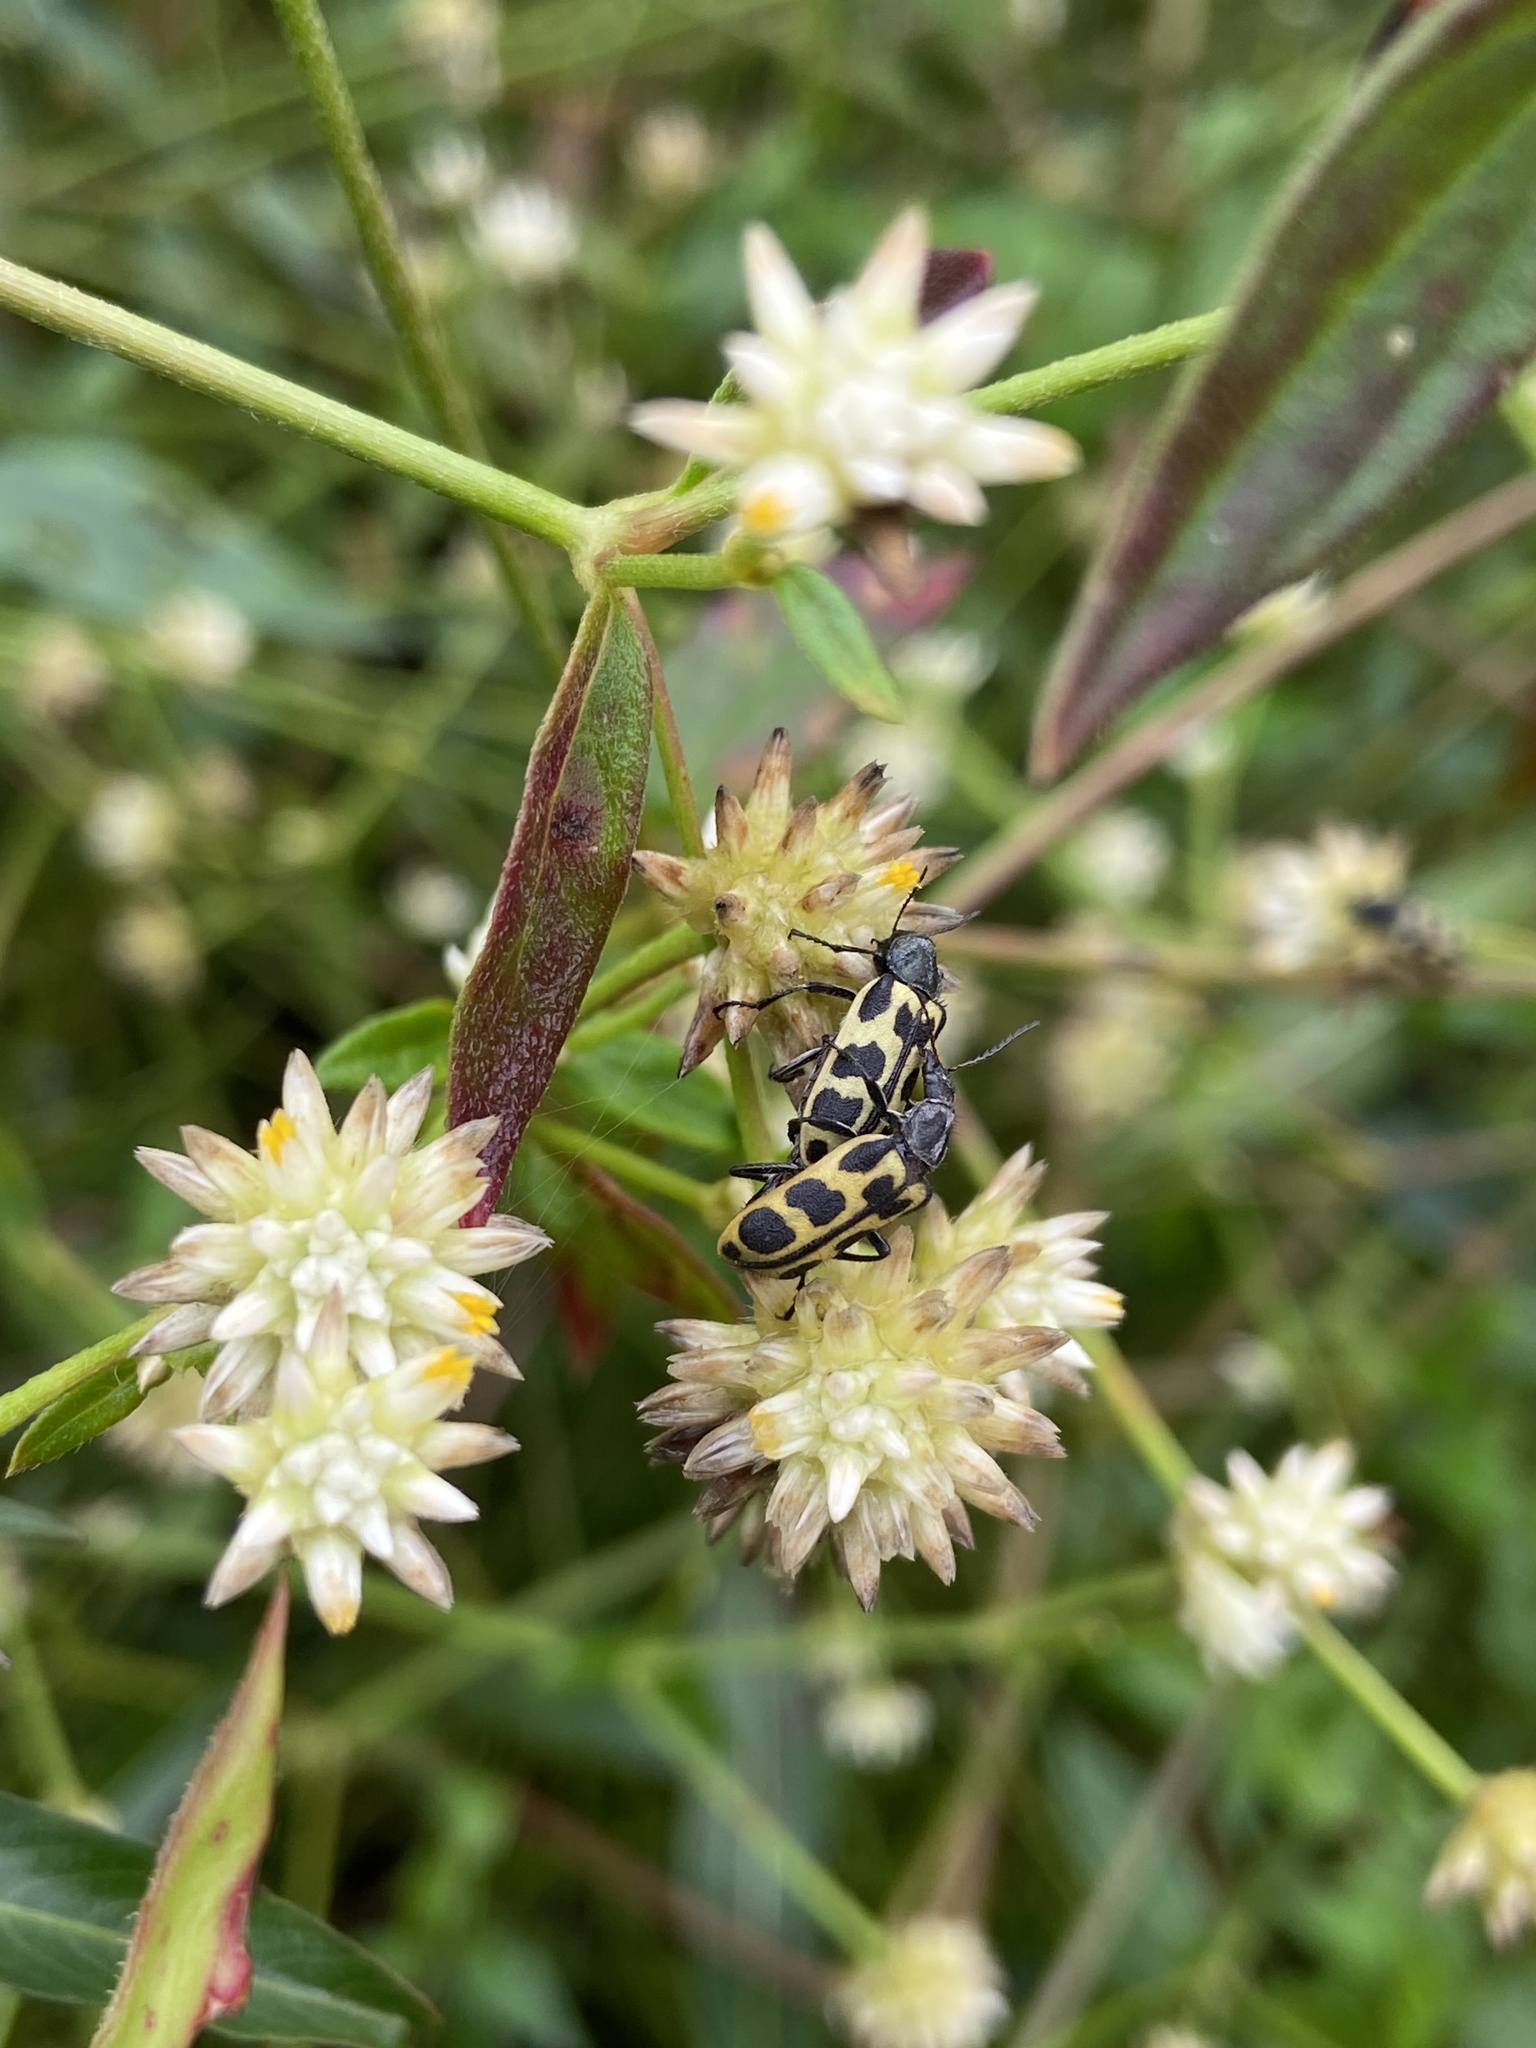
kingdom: Animalia
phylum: Arthropoda
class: Insecta
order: Coleoptera
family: Melyridae
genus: Astylus
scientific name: Astylus atromaculatus
